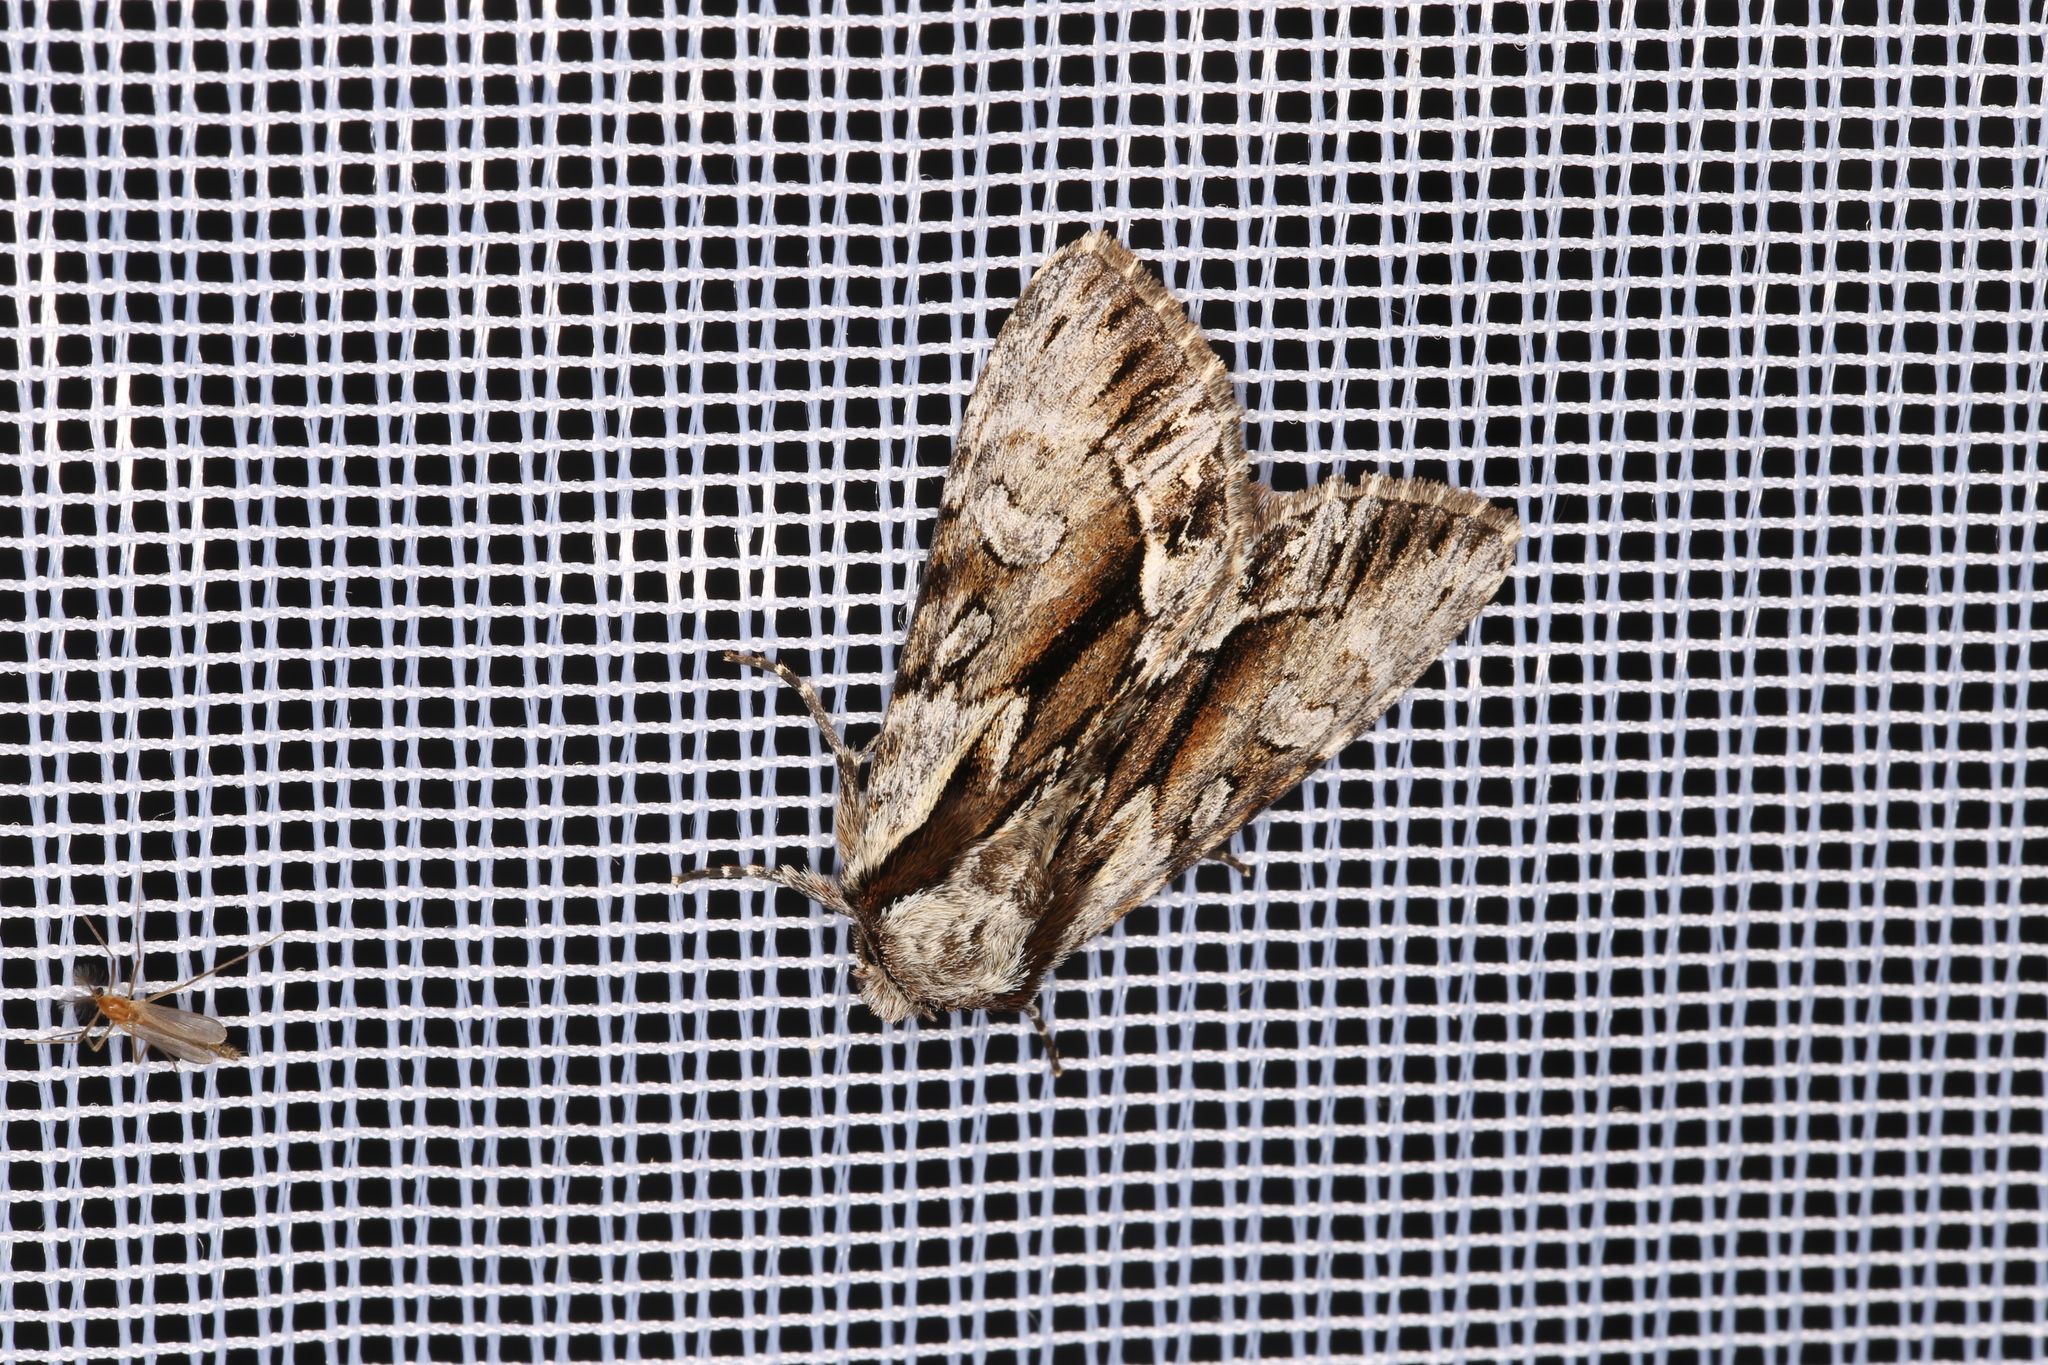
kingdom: Animalia
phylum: Arthropoda
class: Insecta
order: Lepidoptera
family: Noctuidae
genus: Hyppa
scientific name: Hyppa rectilinea
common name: Saxon
